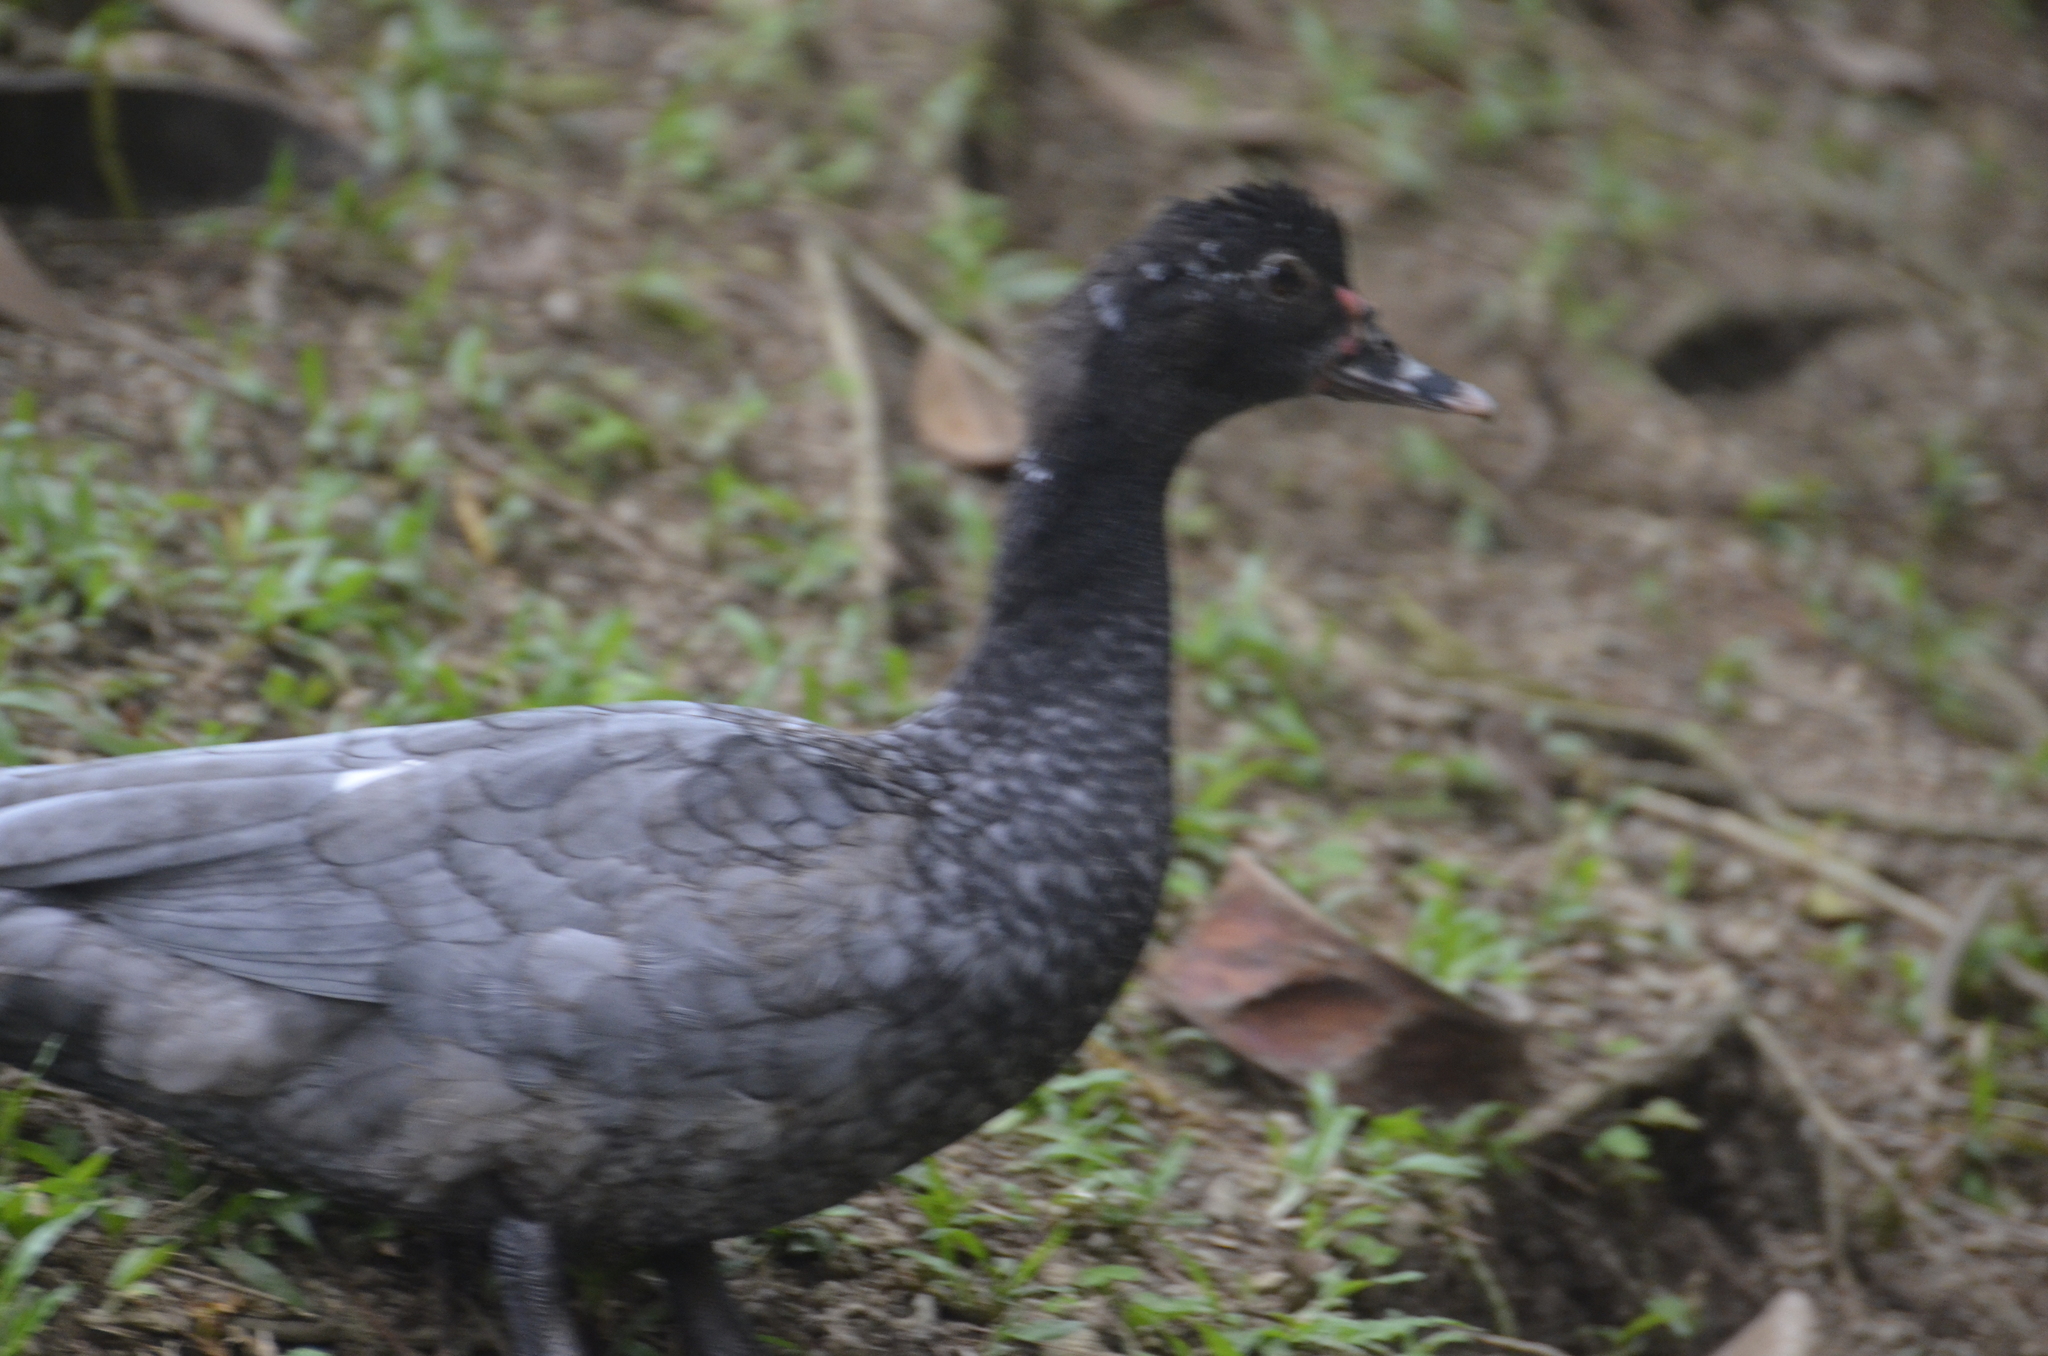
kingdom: Animalia
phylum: Chordata
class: Aves
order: Anseriformes
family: Anatidae
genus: Cairina
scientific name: Cairina moschata
